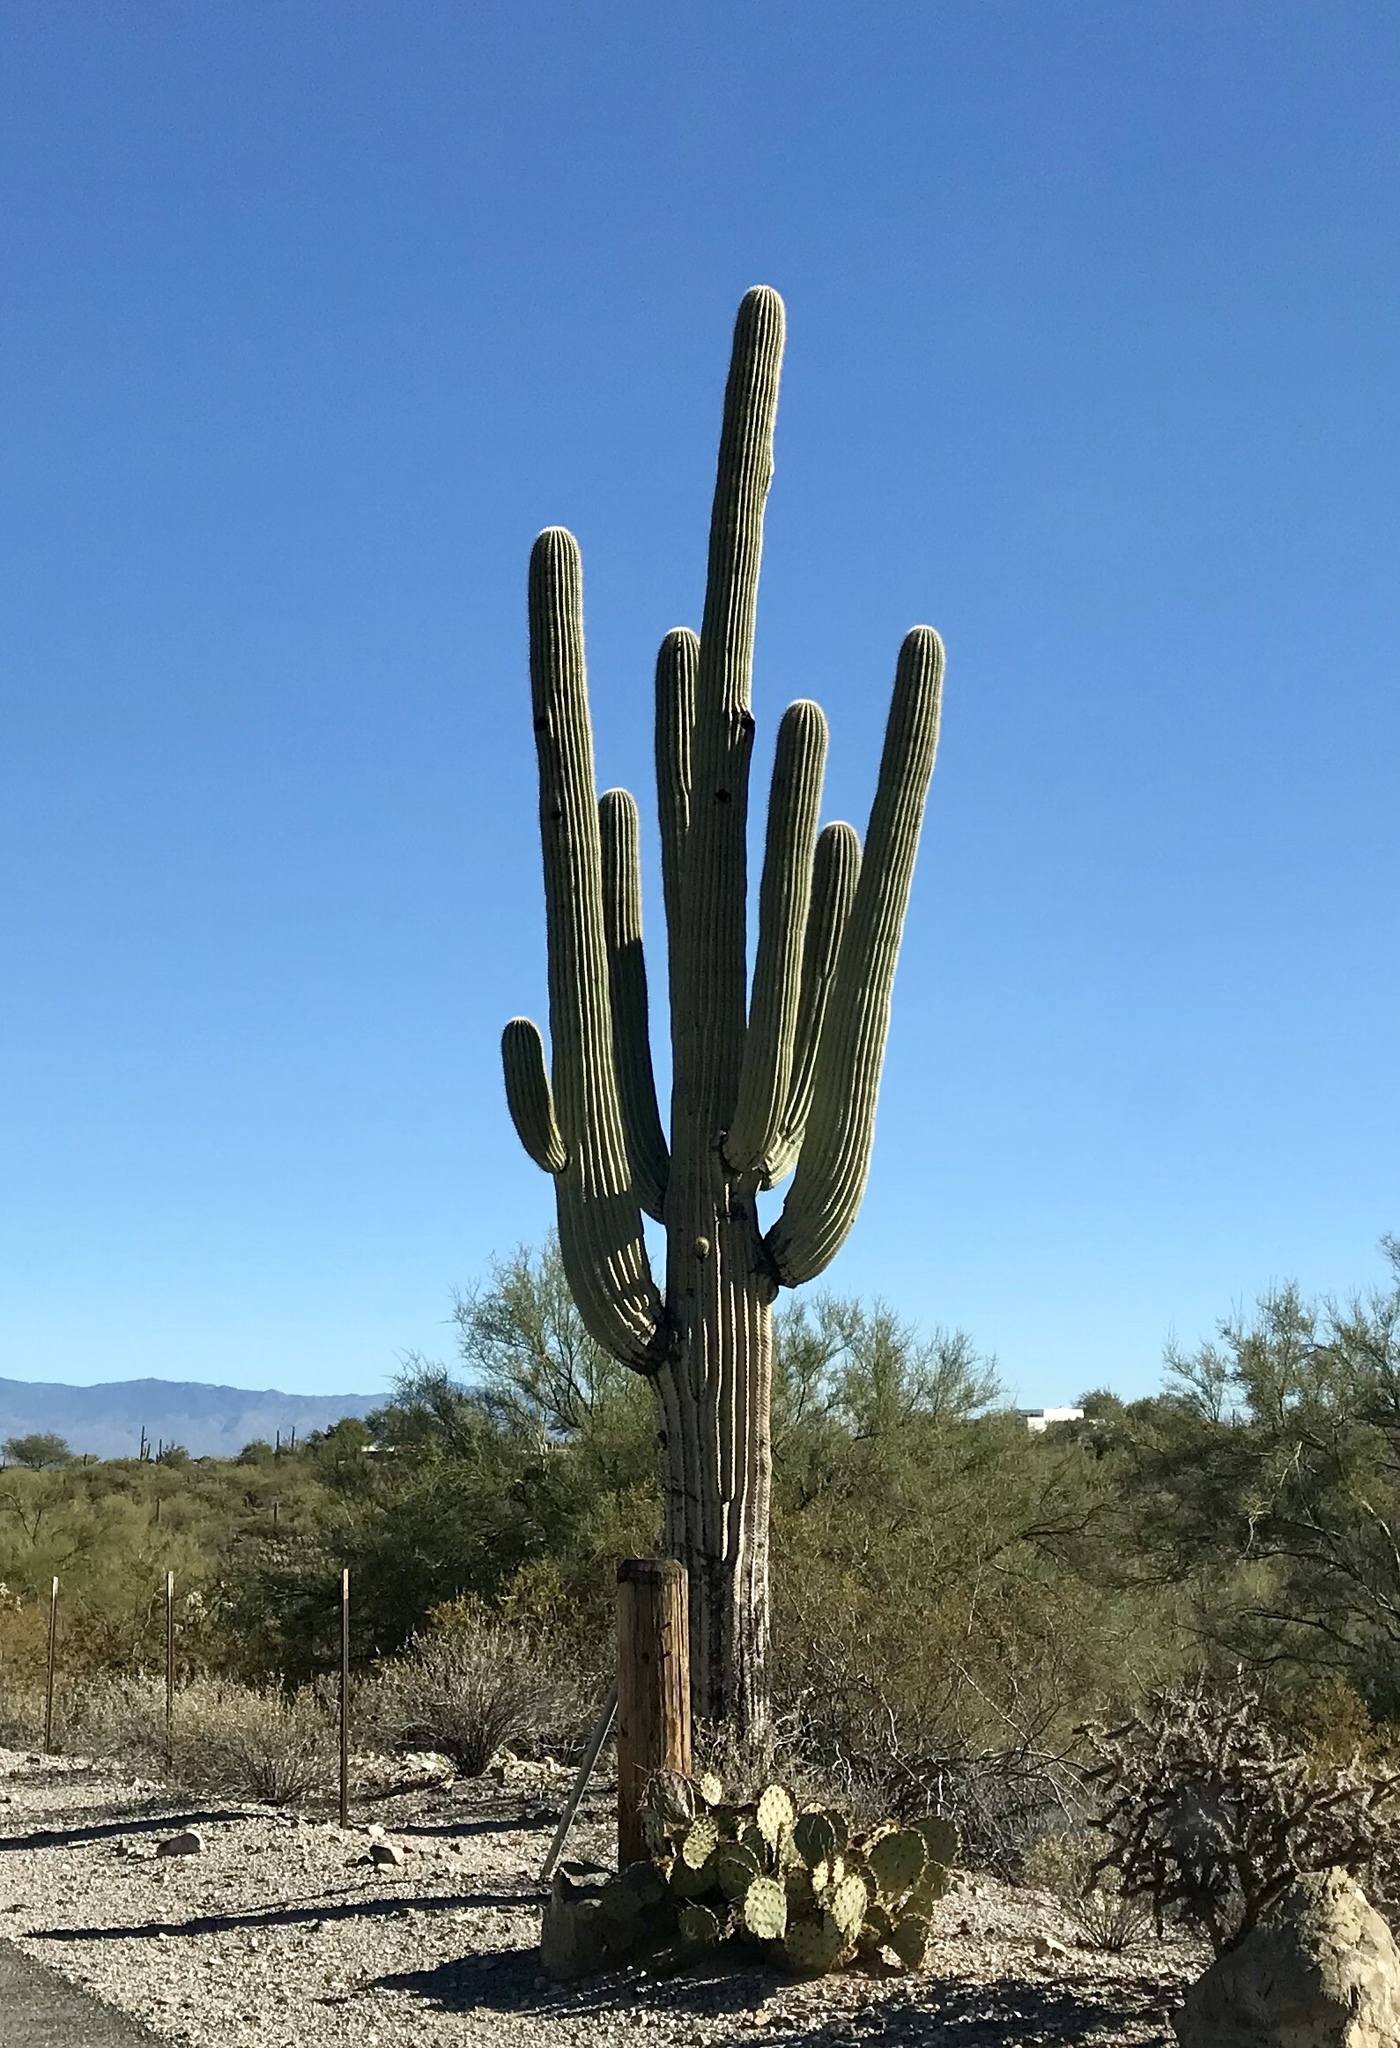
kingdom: Plantae
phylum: Tracheophyta
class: Magnoliopsida
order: Caryophyllales
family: Cactaceae
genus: Carnegiea
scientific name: Carnegiea gigantea
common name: Saguaro
